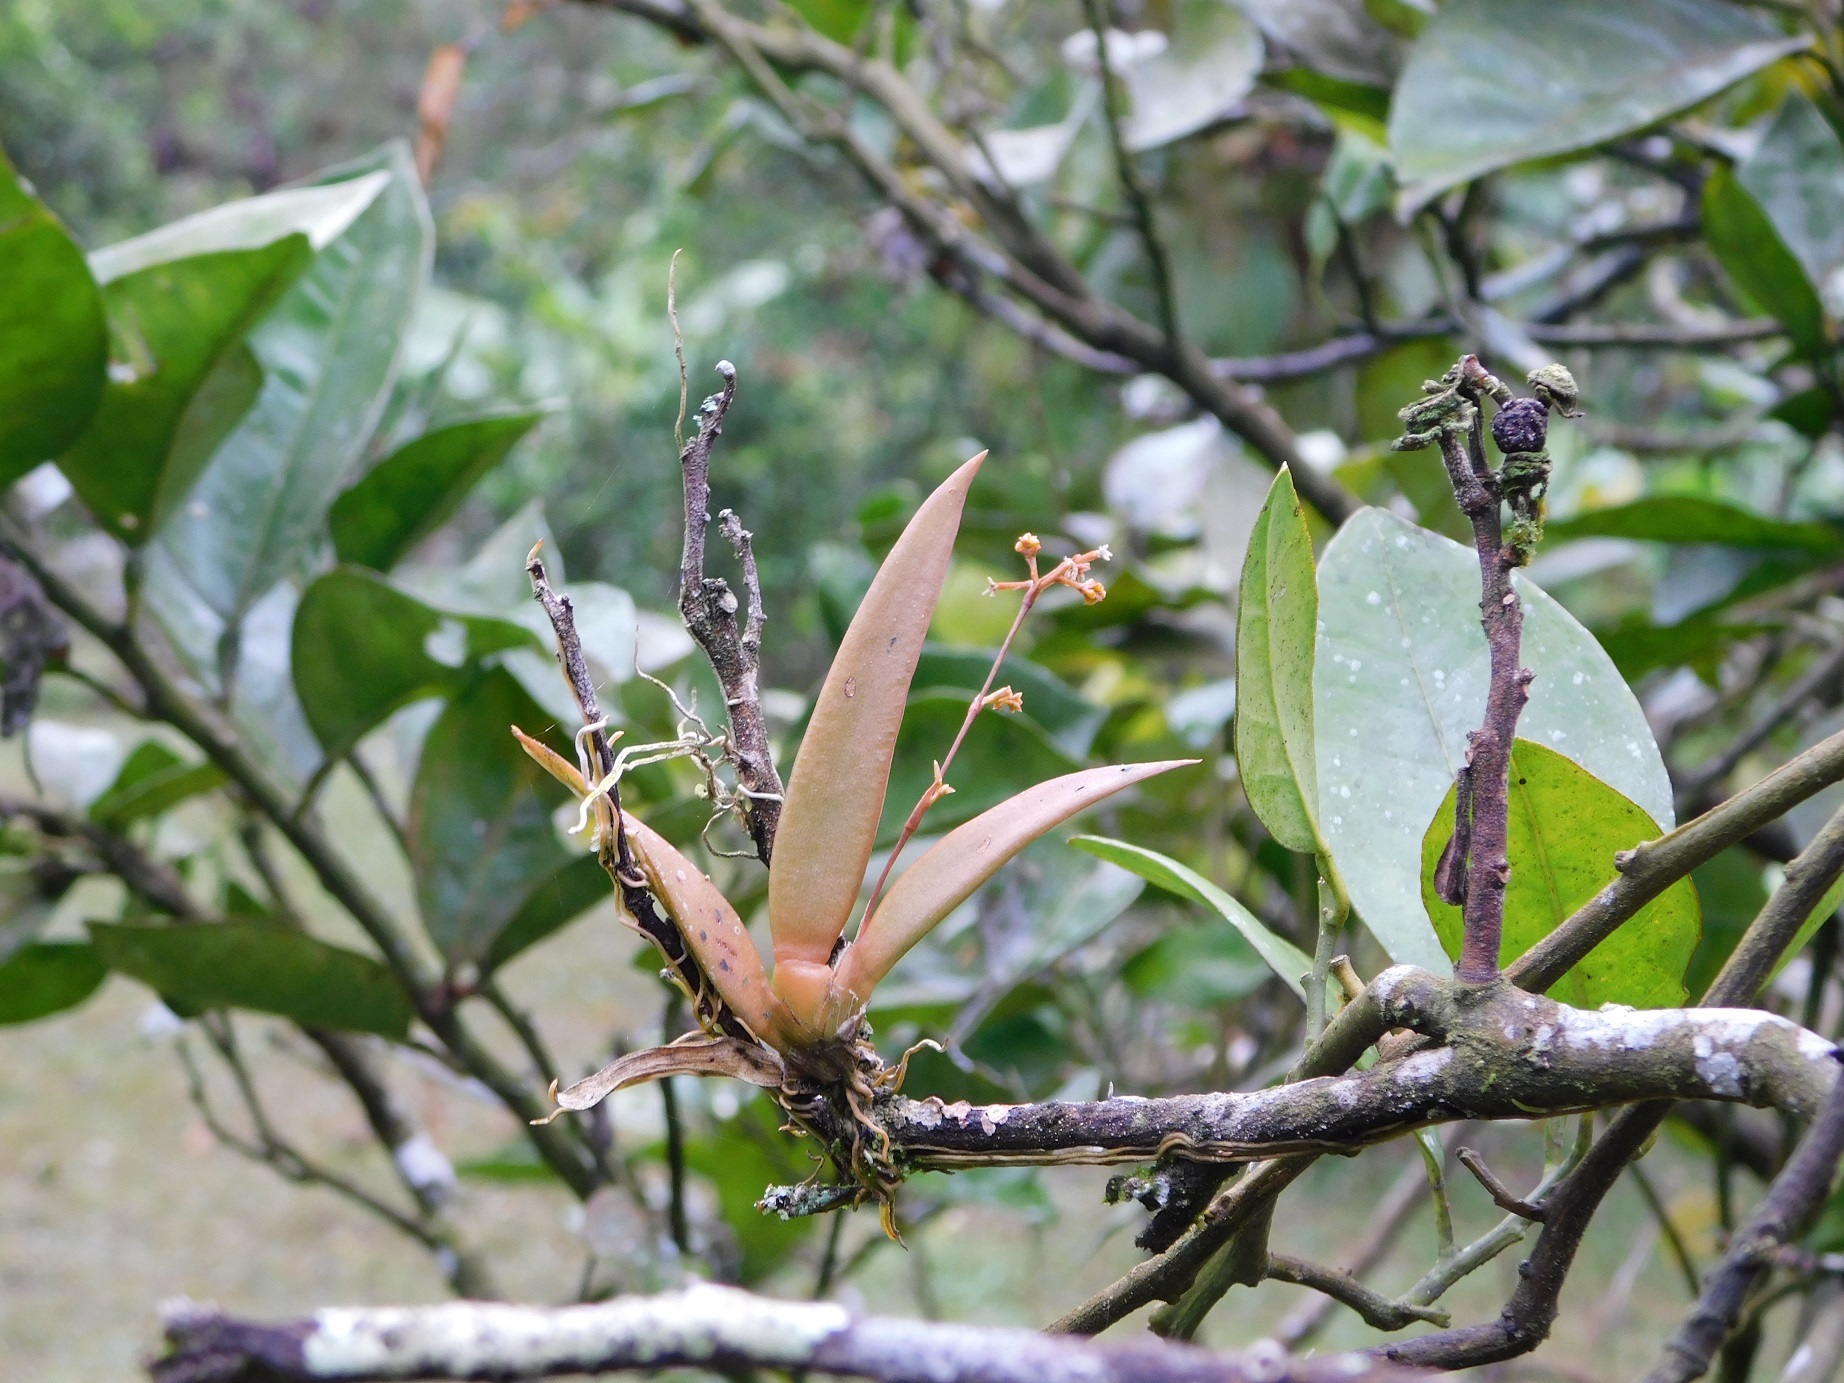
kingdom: Plantae
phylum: Tracheophyta
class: Liliopsida
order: Asparagales
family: Orchidaceae
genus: Trizeuxis
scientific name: Trizeuxis falcata
